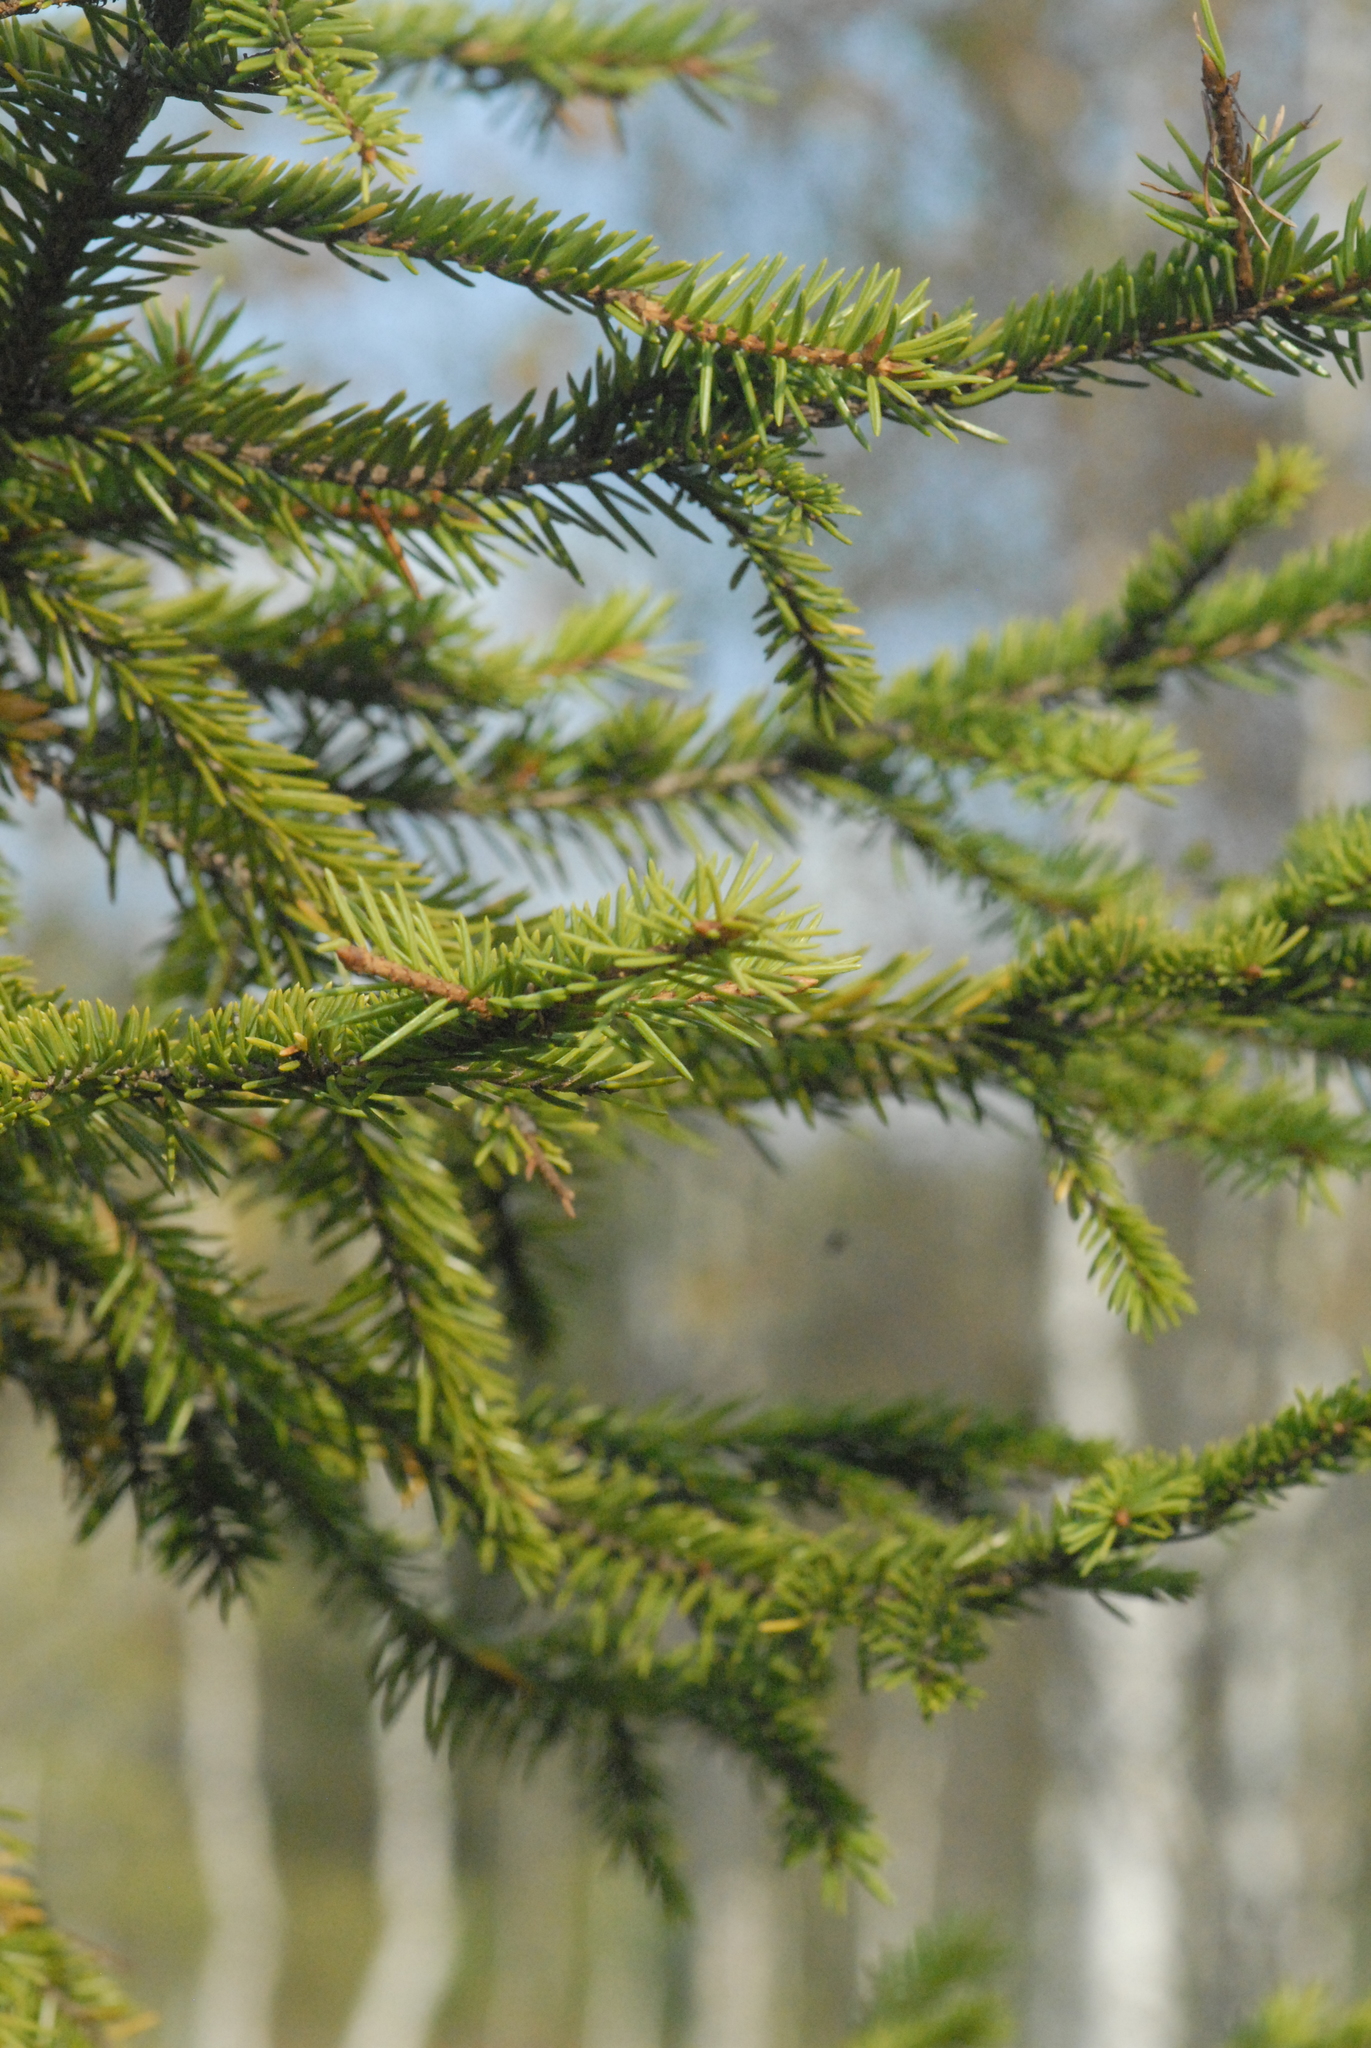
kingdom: Plantae
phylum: Tracheophyta
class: Pinopsida
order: Pinales
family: Pinaceae
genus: Picea
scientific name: Picea abies
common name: Norway spruce
